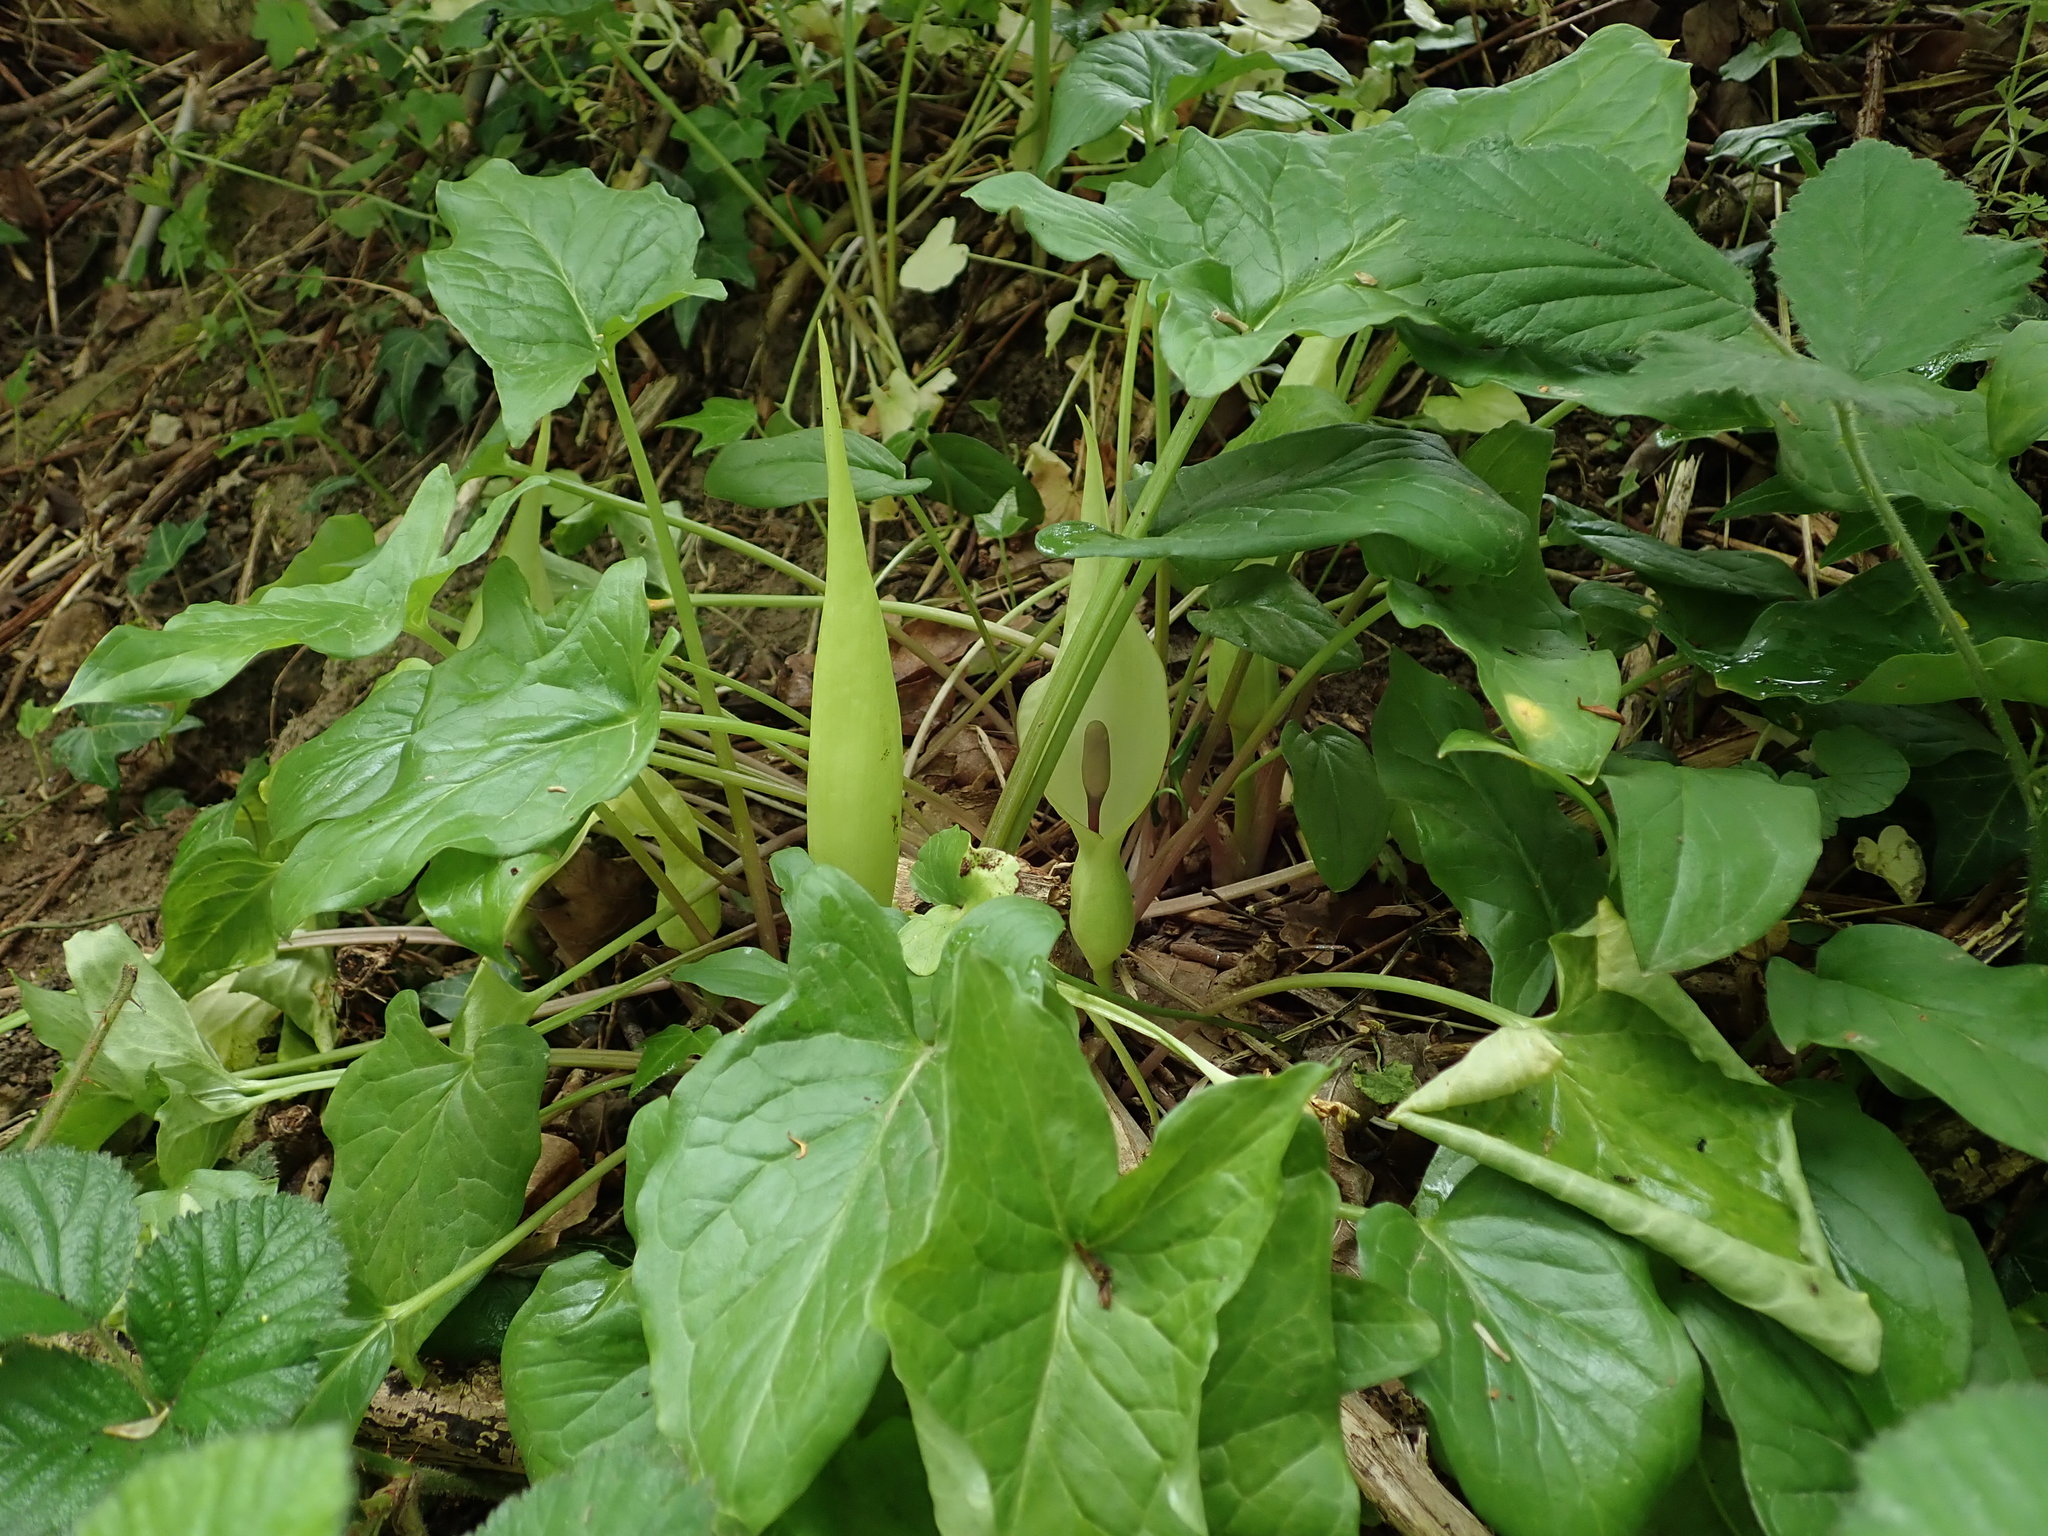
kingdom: Plantae
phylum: Tracheophyta
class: Liliopsida
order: Alismatales
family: Araceae
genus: Arum
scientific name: Arum maculatum
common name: Lords-and-ladies
